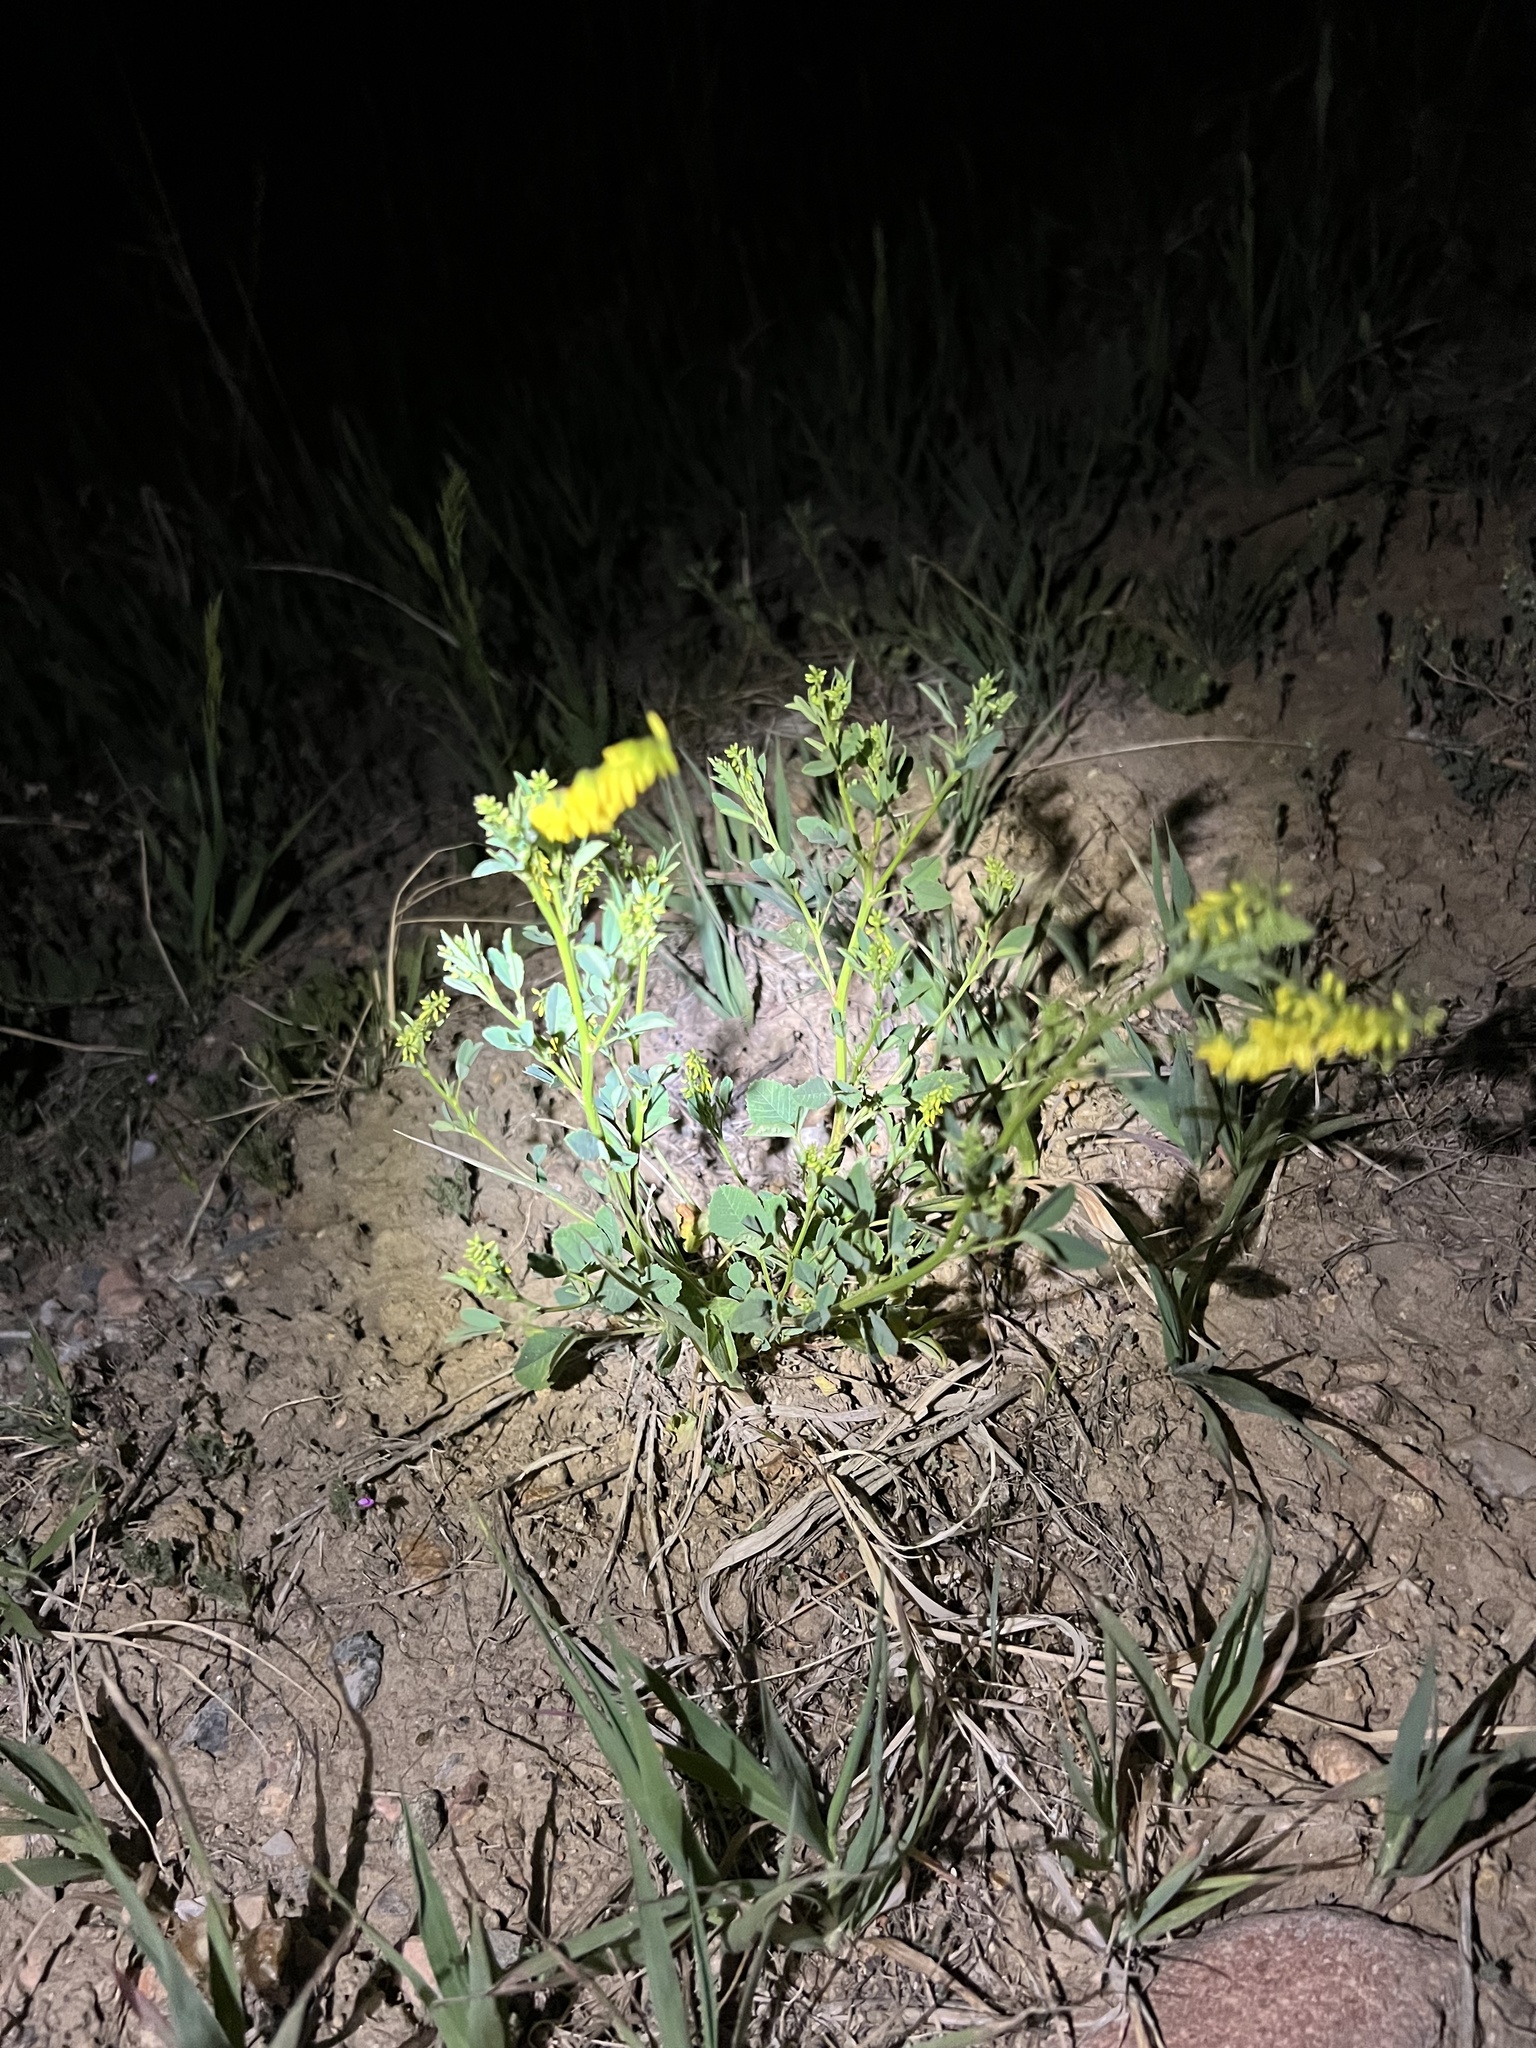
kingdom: Plantae
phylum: Tracheophyta
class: Magnoliopsida
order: Fabales
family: Fabaceae
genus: Melilotus
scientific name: Melilotus officinalis
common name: Sweetclover
